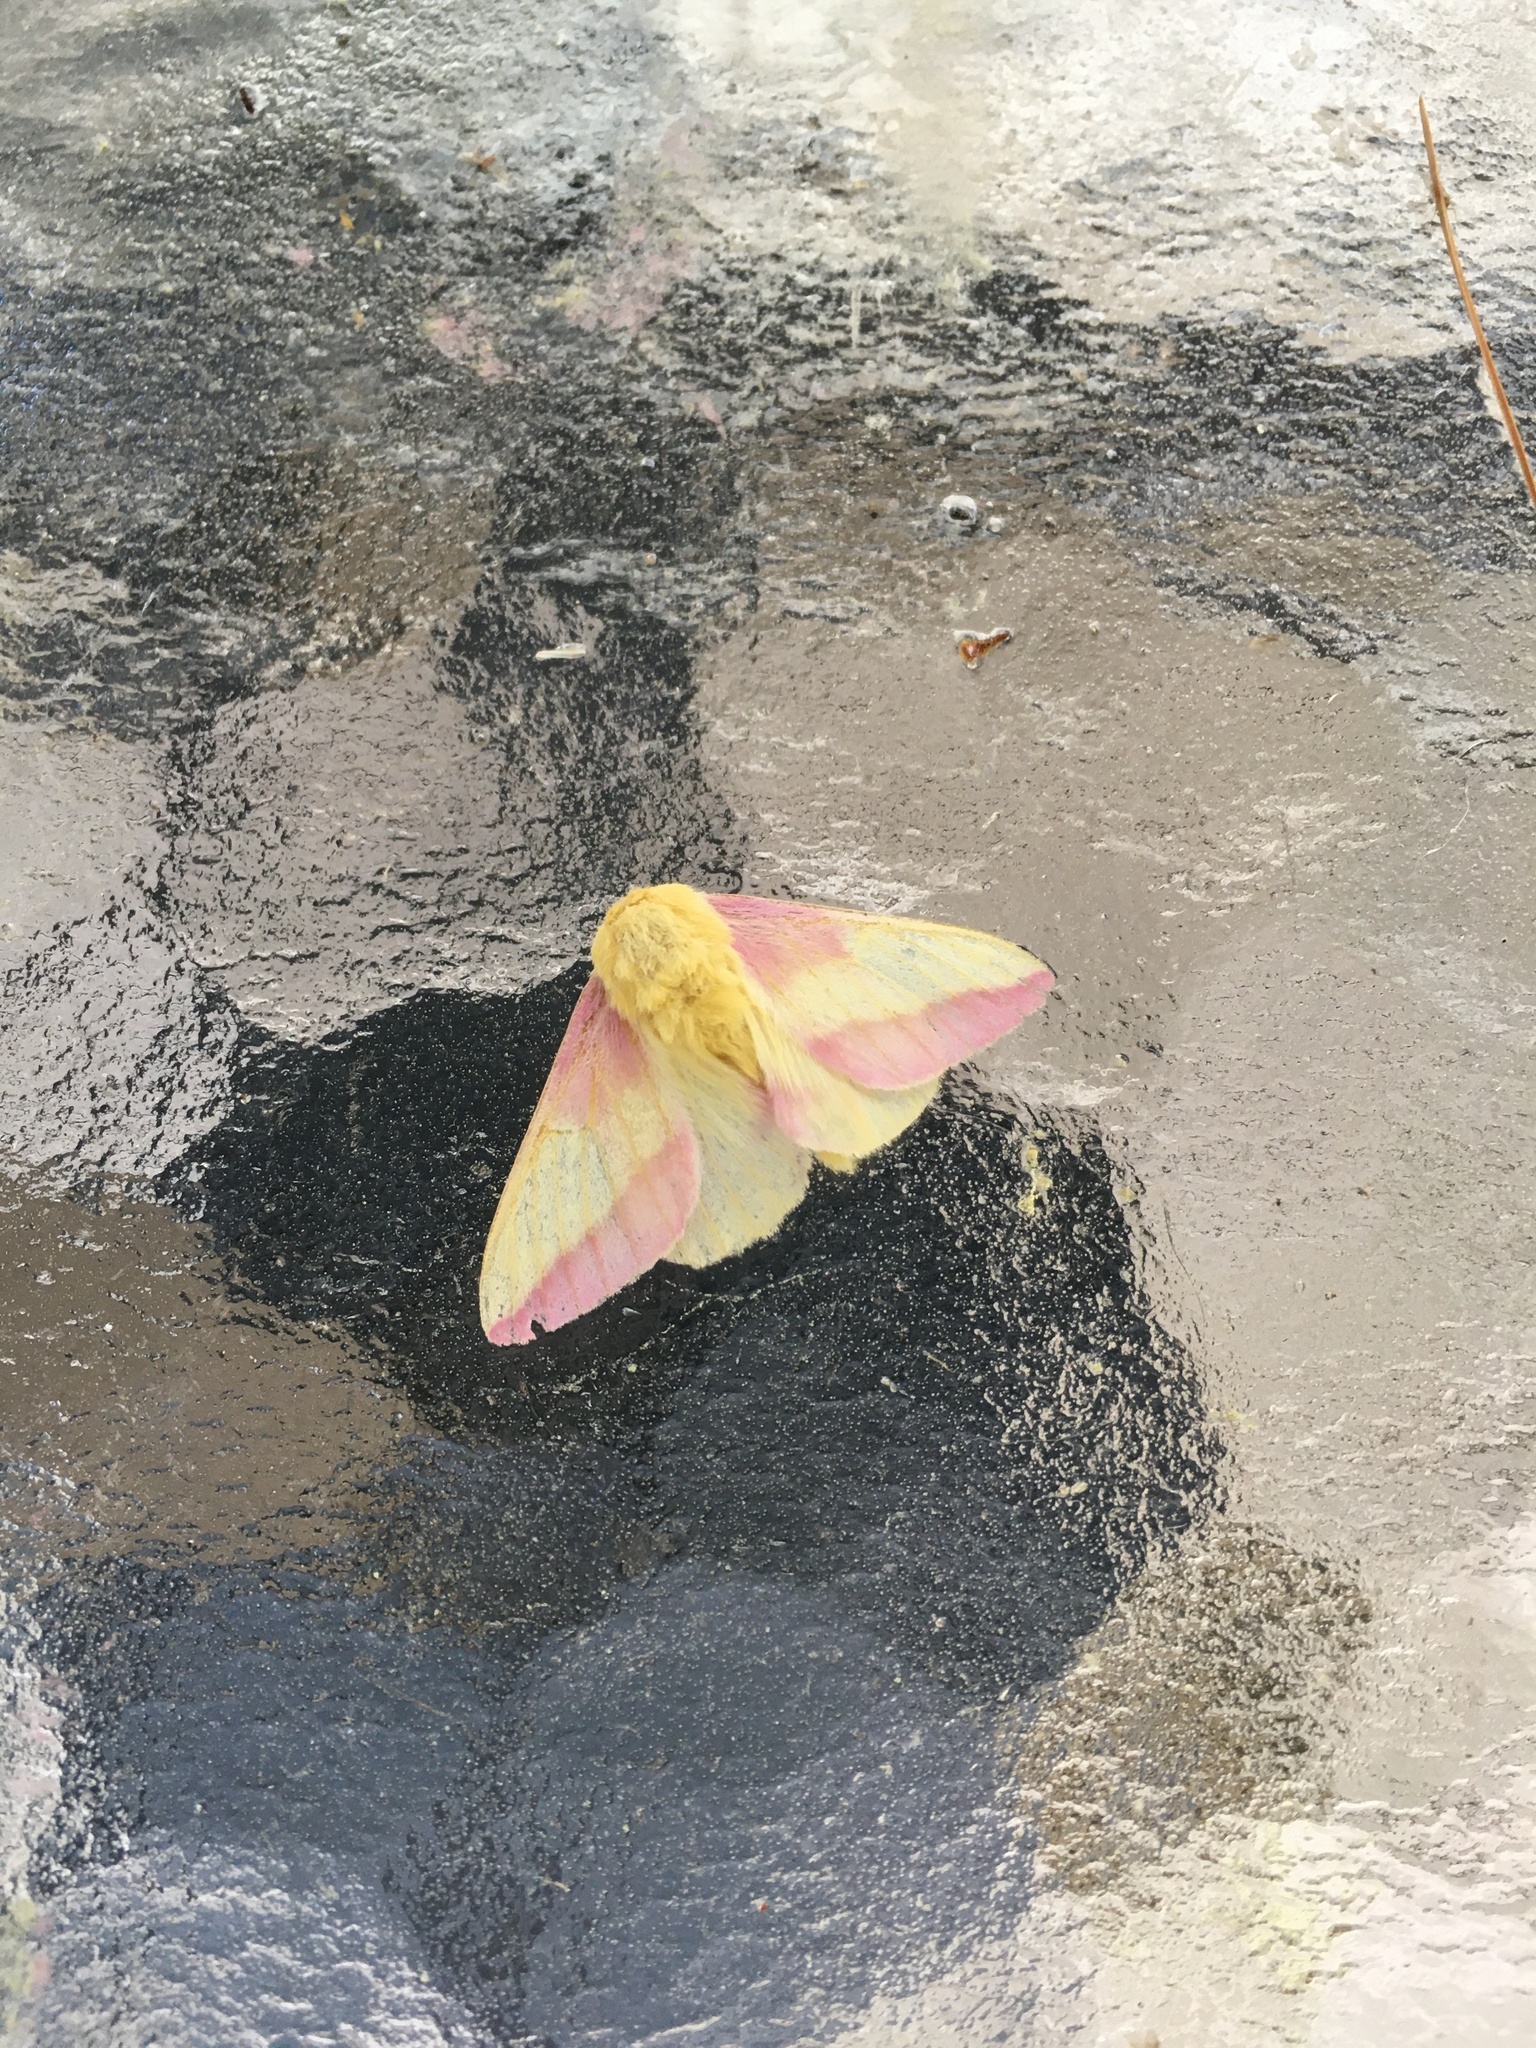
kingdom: Animalia
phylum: Arthropoda
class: Insecta
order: Lepidoptera
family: Saturniidae
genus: Dryocampa
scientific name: Dryocampa rubicunda
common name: Rosy maple moth
